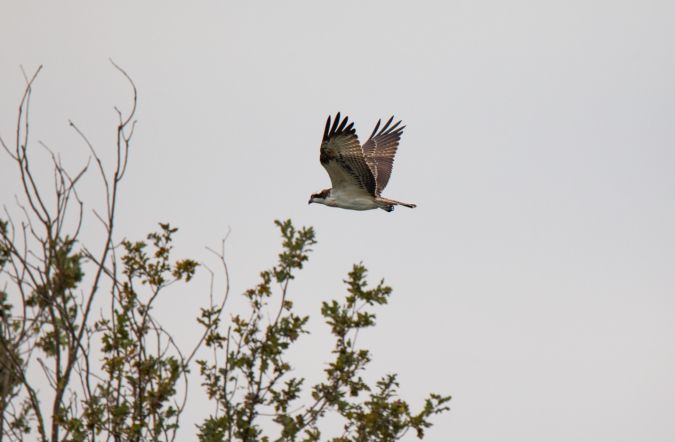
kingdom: Animalia
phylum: Chordata
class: Aves
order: Accipitriformes
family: Pandionidae
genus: Pandion
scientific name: Pandion haliaetus
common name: Osprey
